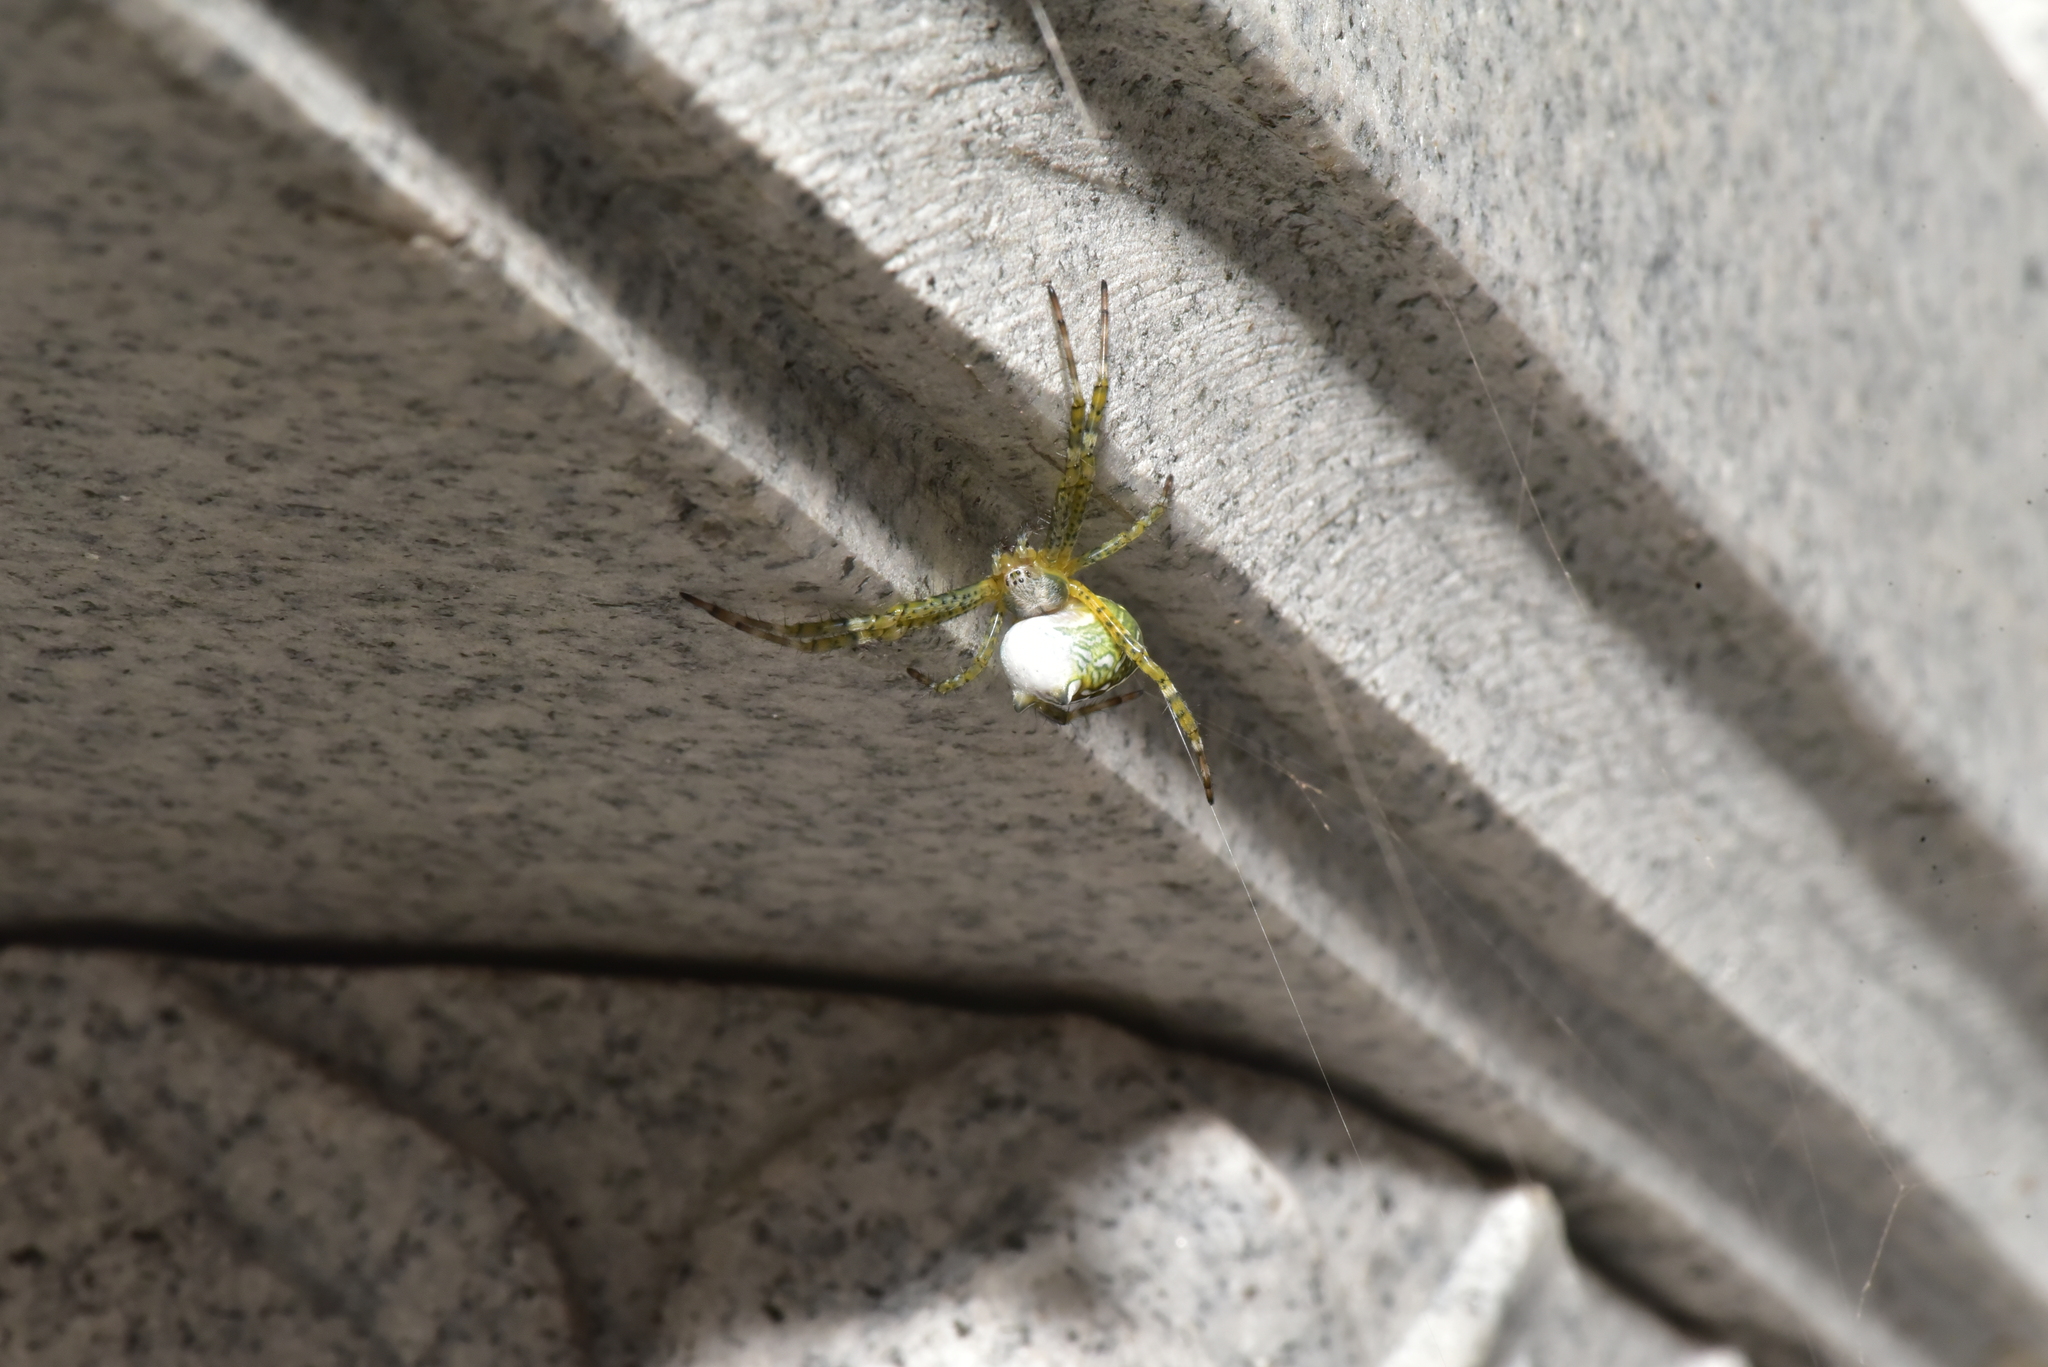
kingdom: Chromista
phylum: Ochrophyta
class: Dictyochophyceae
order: Pedinellales
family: Cyrtophoraceae
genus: Cyrtophora
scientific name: Cyrtophora moluccensis
